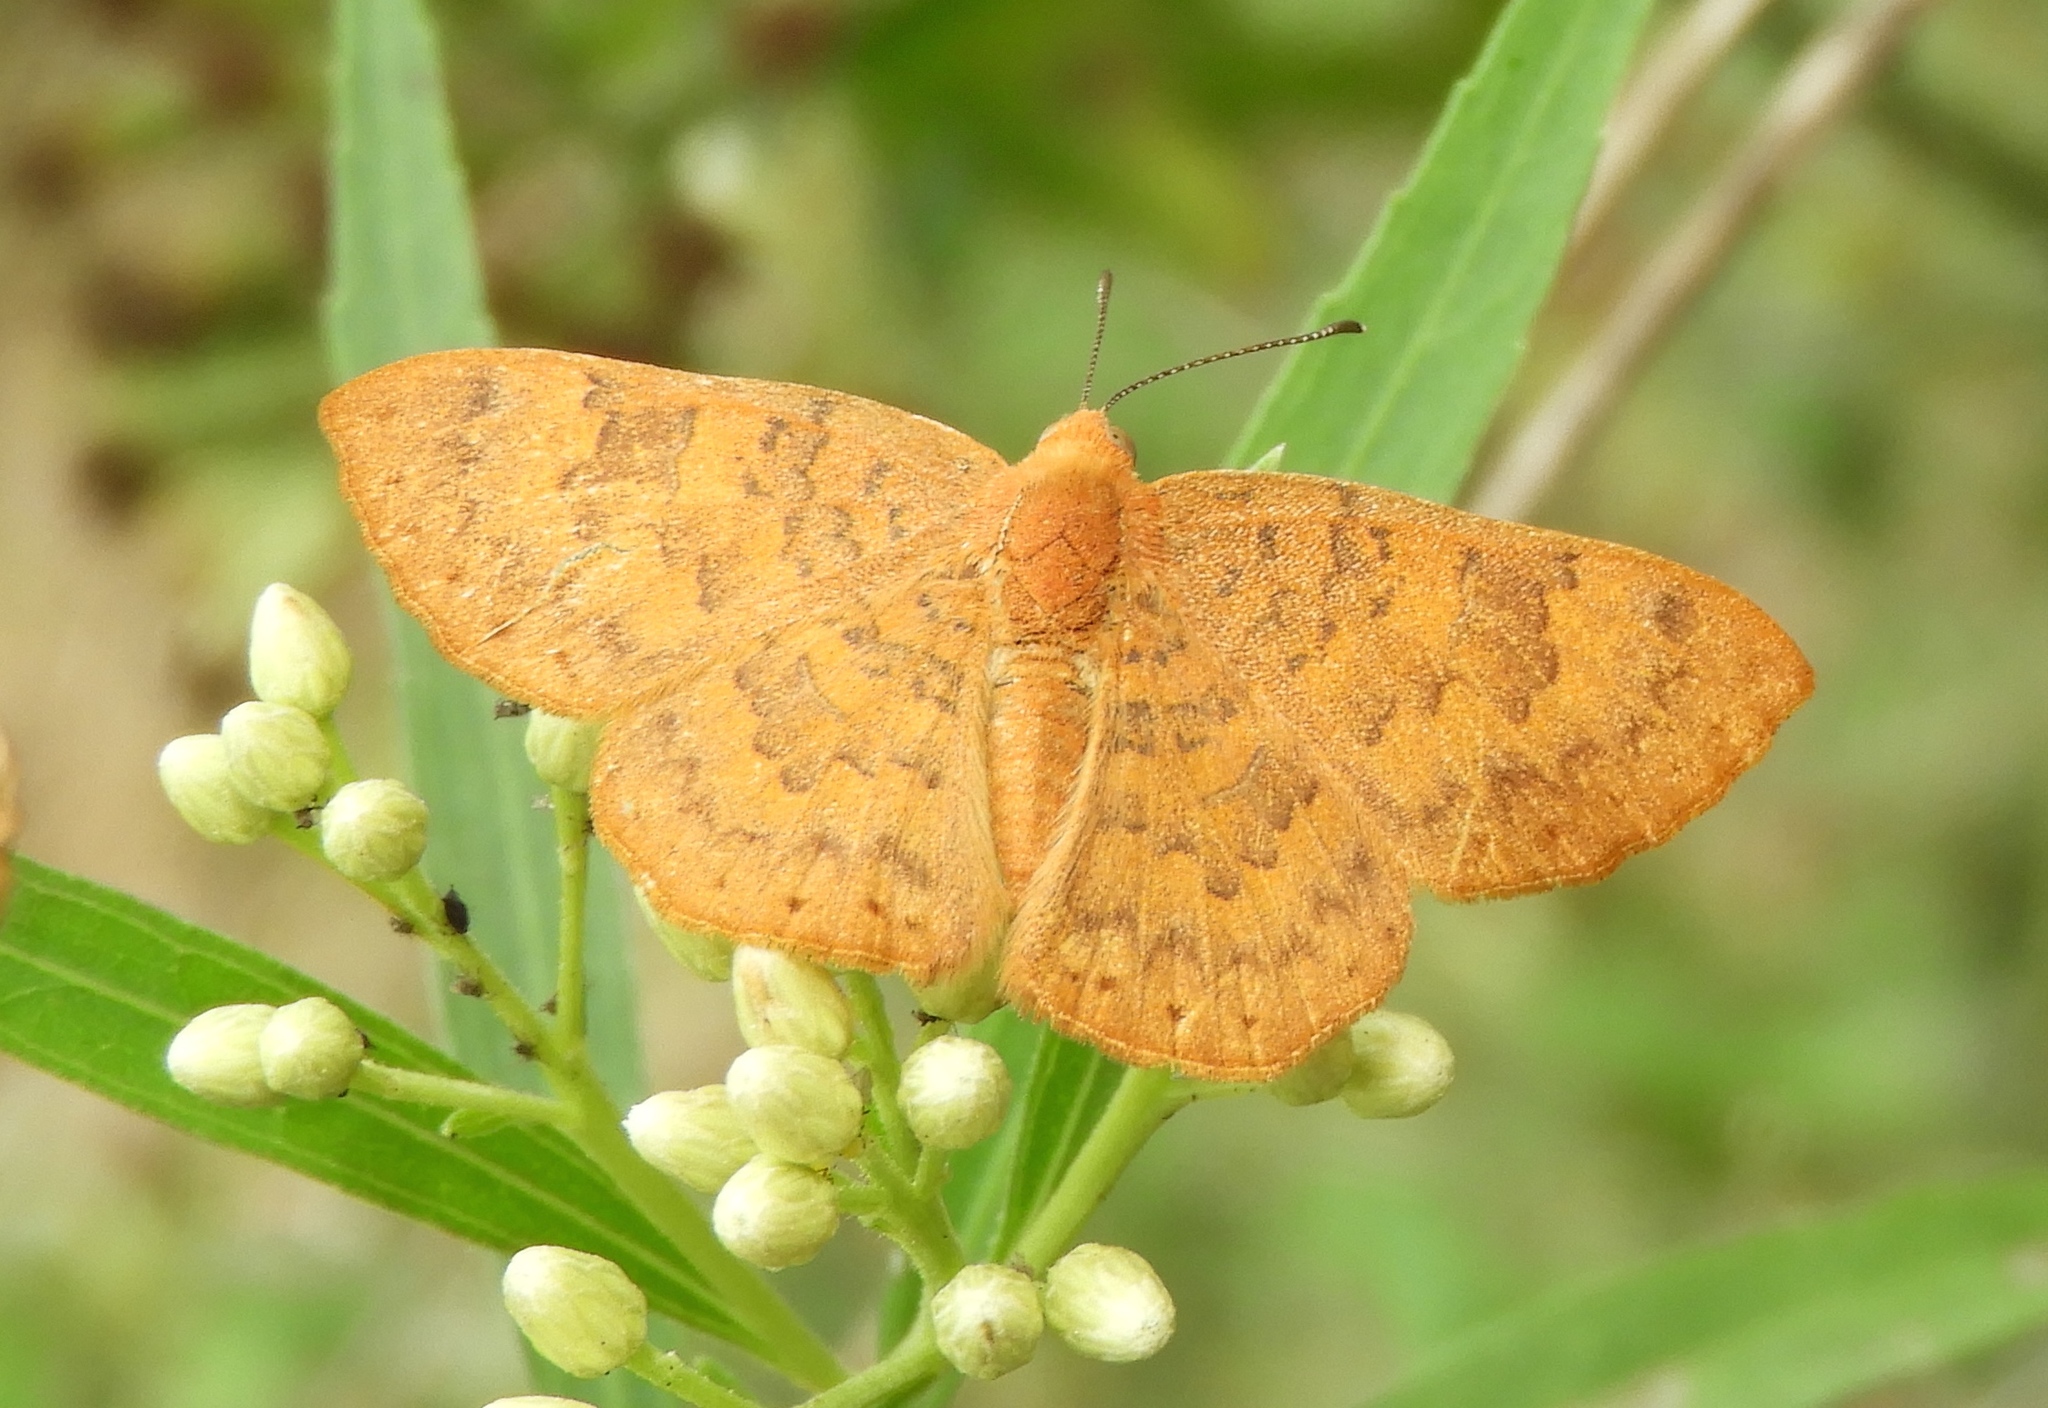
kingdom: Animalia
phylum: Arthropoda
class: Insecta
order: Lepidoptera
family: Lycaenidae
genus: Emesis
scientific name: Emesis vulpina
